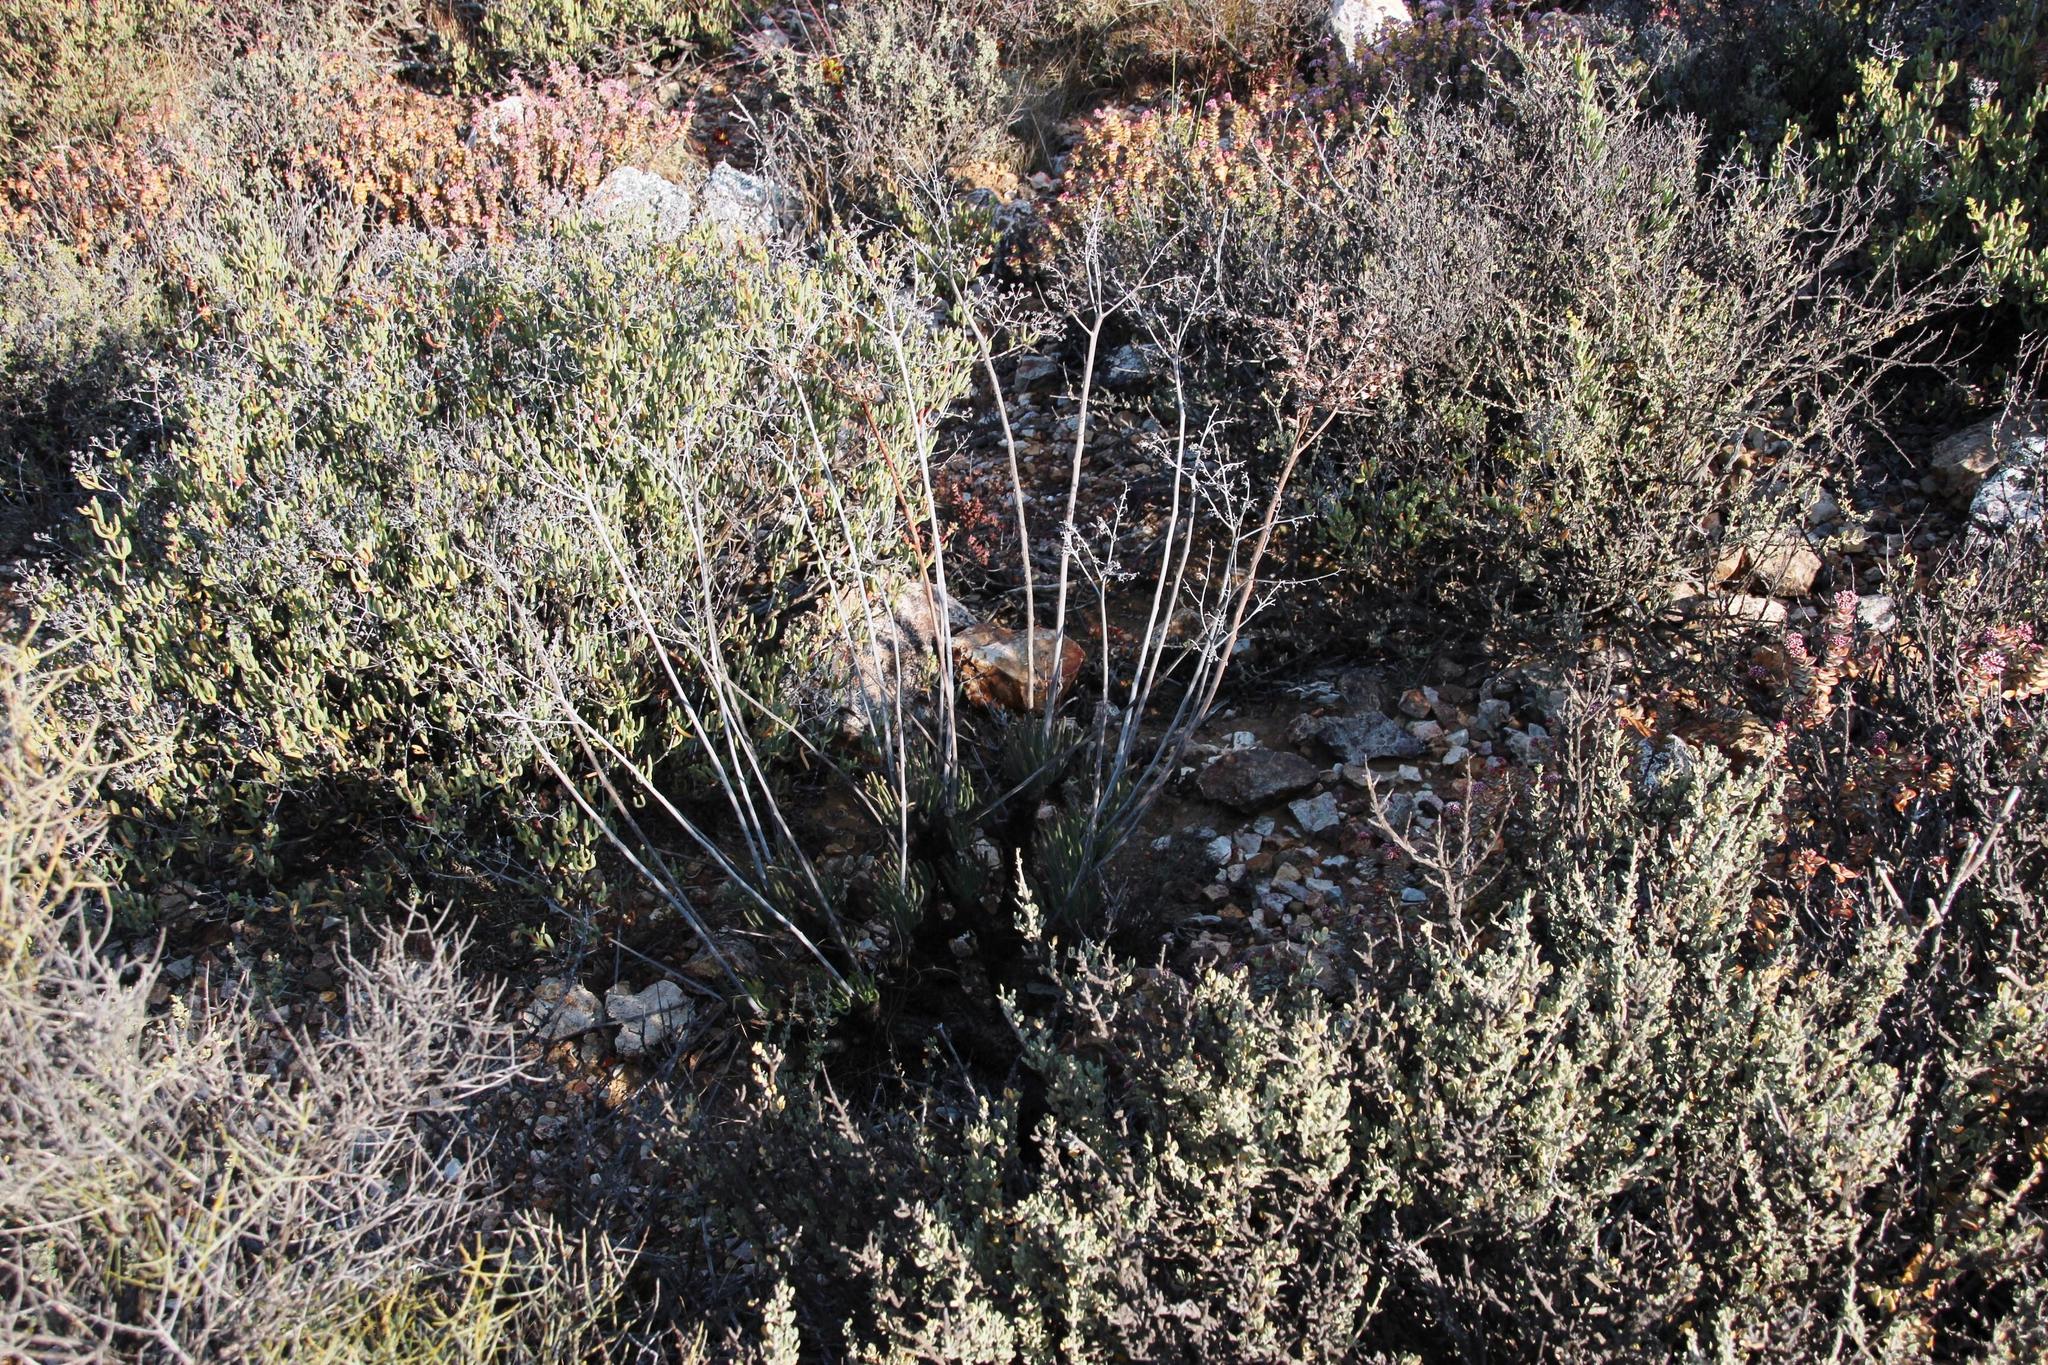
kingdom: Plantae
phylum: Tracheophyta
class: Magnoliopsida
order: Saxifragales
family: Crassulaceae
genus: Tylecodon
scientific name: Tylecodon wallichii
